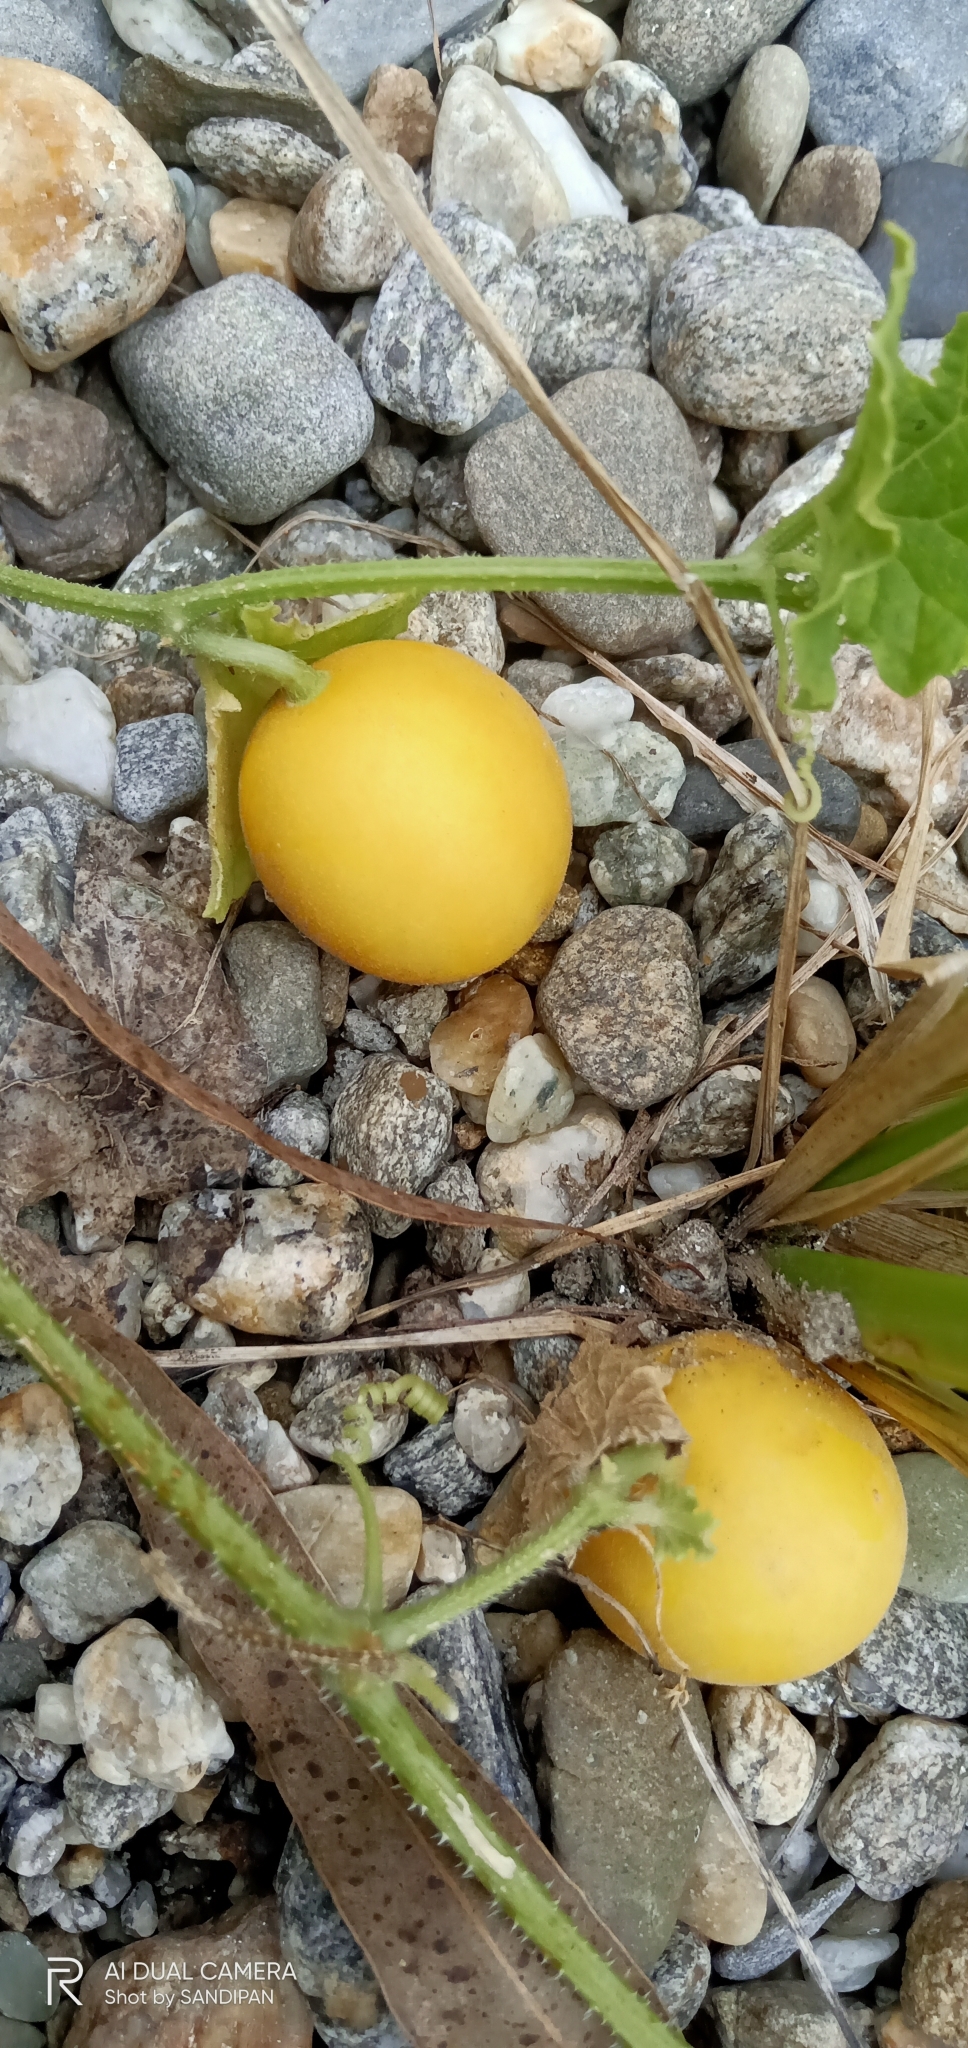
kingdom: Plantae
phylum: Tracheophyta
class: Magnoliopsida
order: Cucurbitales
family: Cucurbitaceae
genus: Cucumis
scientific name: Cucumis melo
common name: Melon
